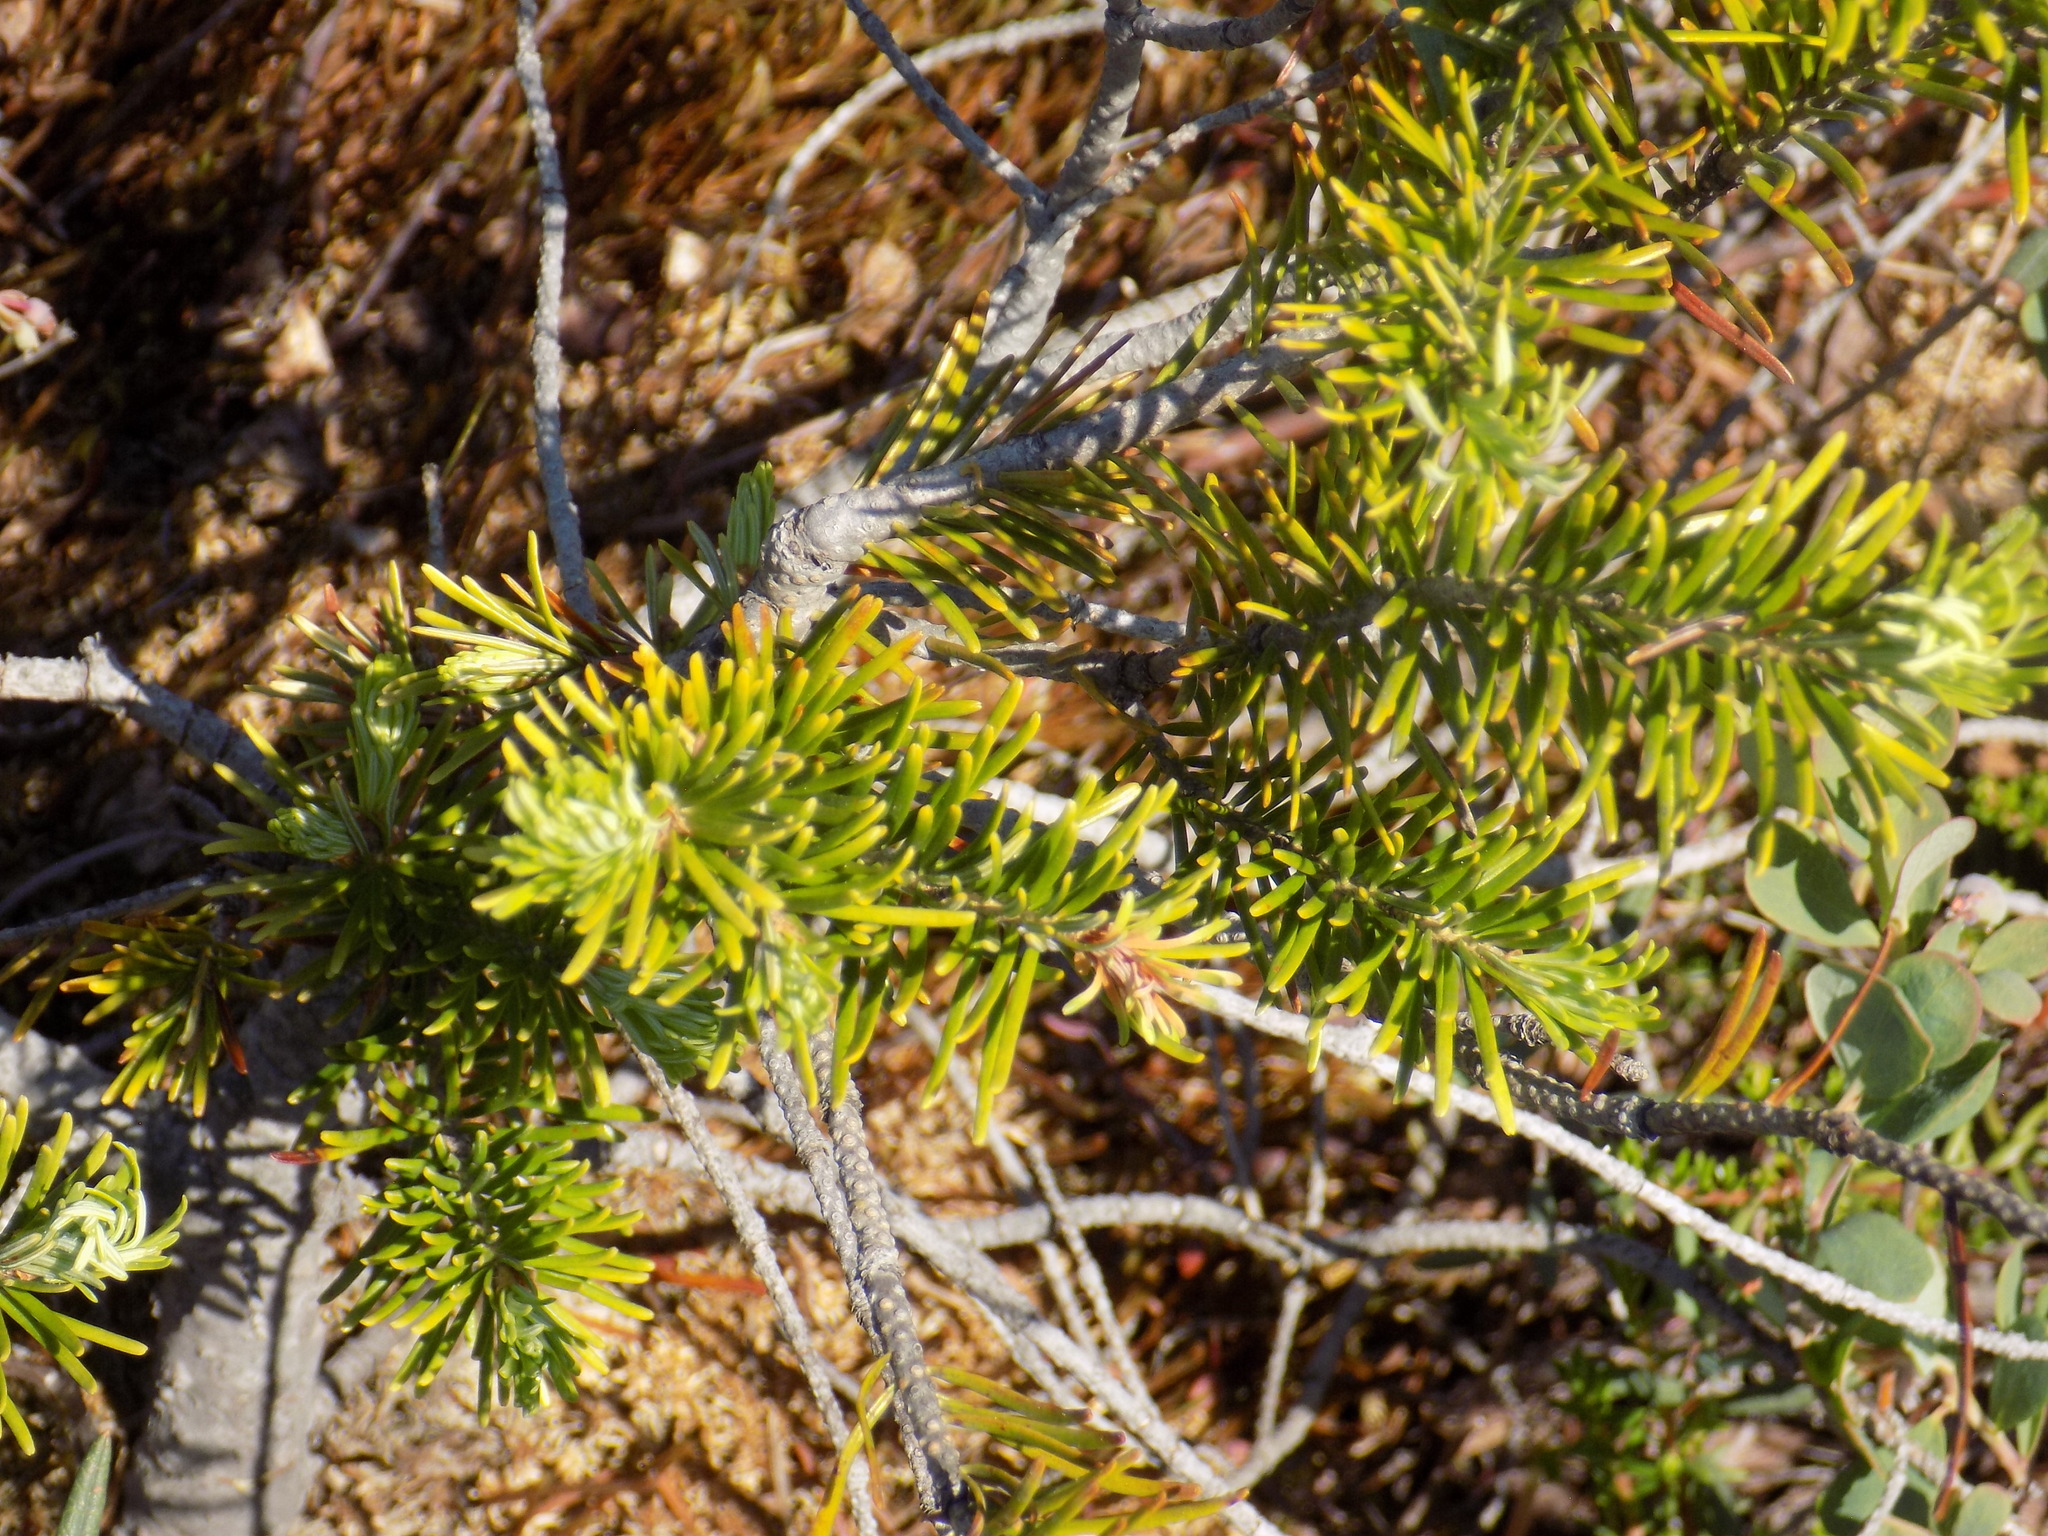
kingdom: Plantae
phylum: Tracheophyta
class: Pinopsida
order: Pinales
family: Pinaceae
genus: Abies
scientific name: Abies sibirica
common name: Siberian fir
